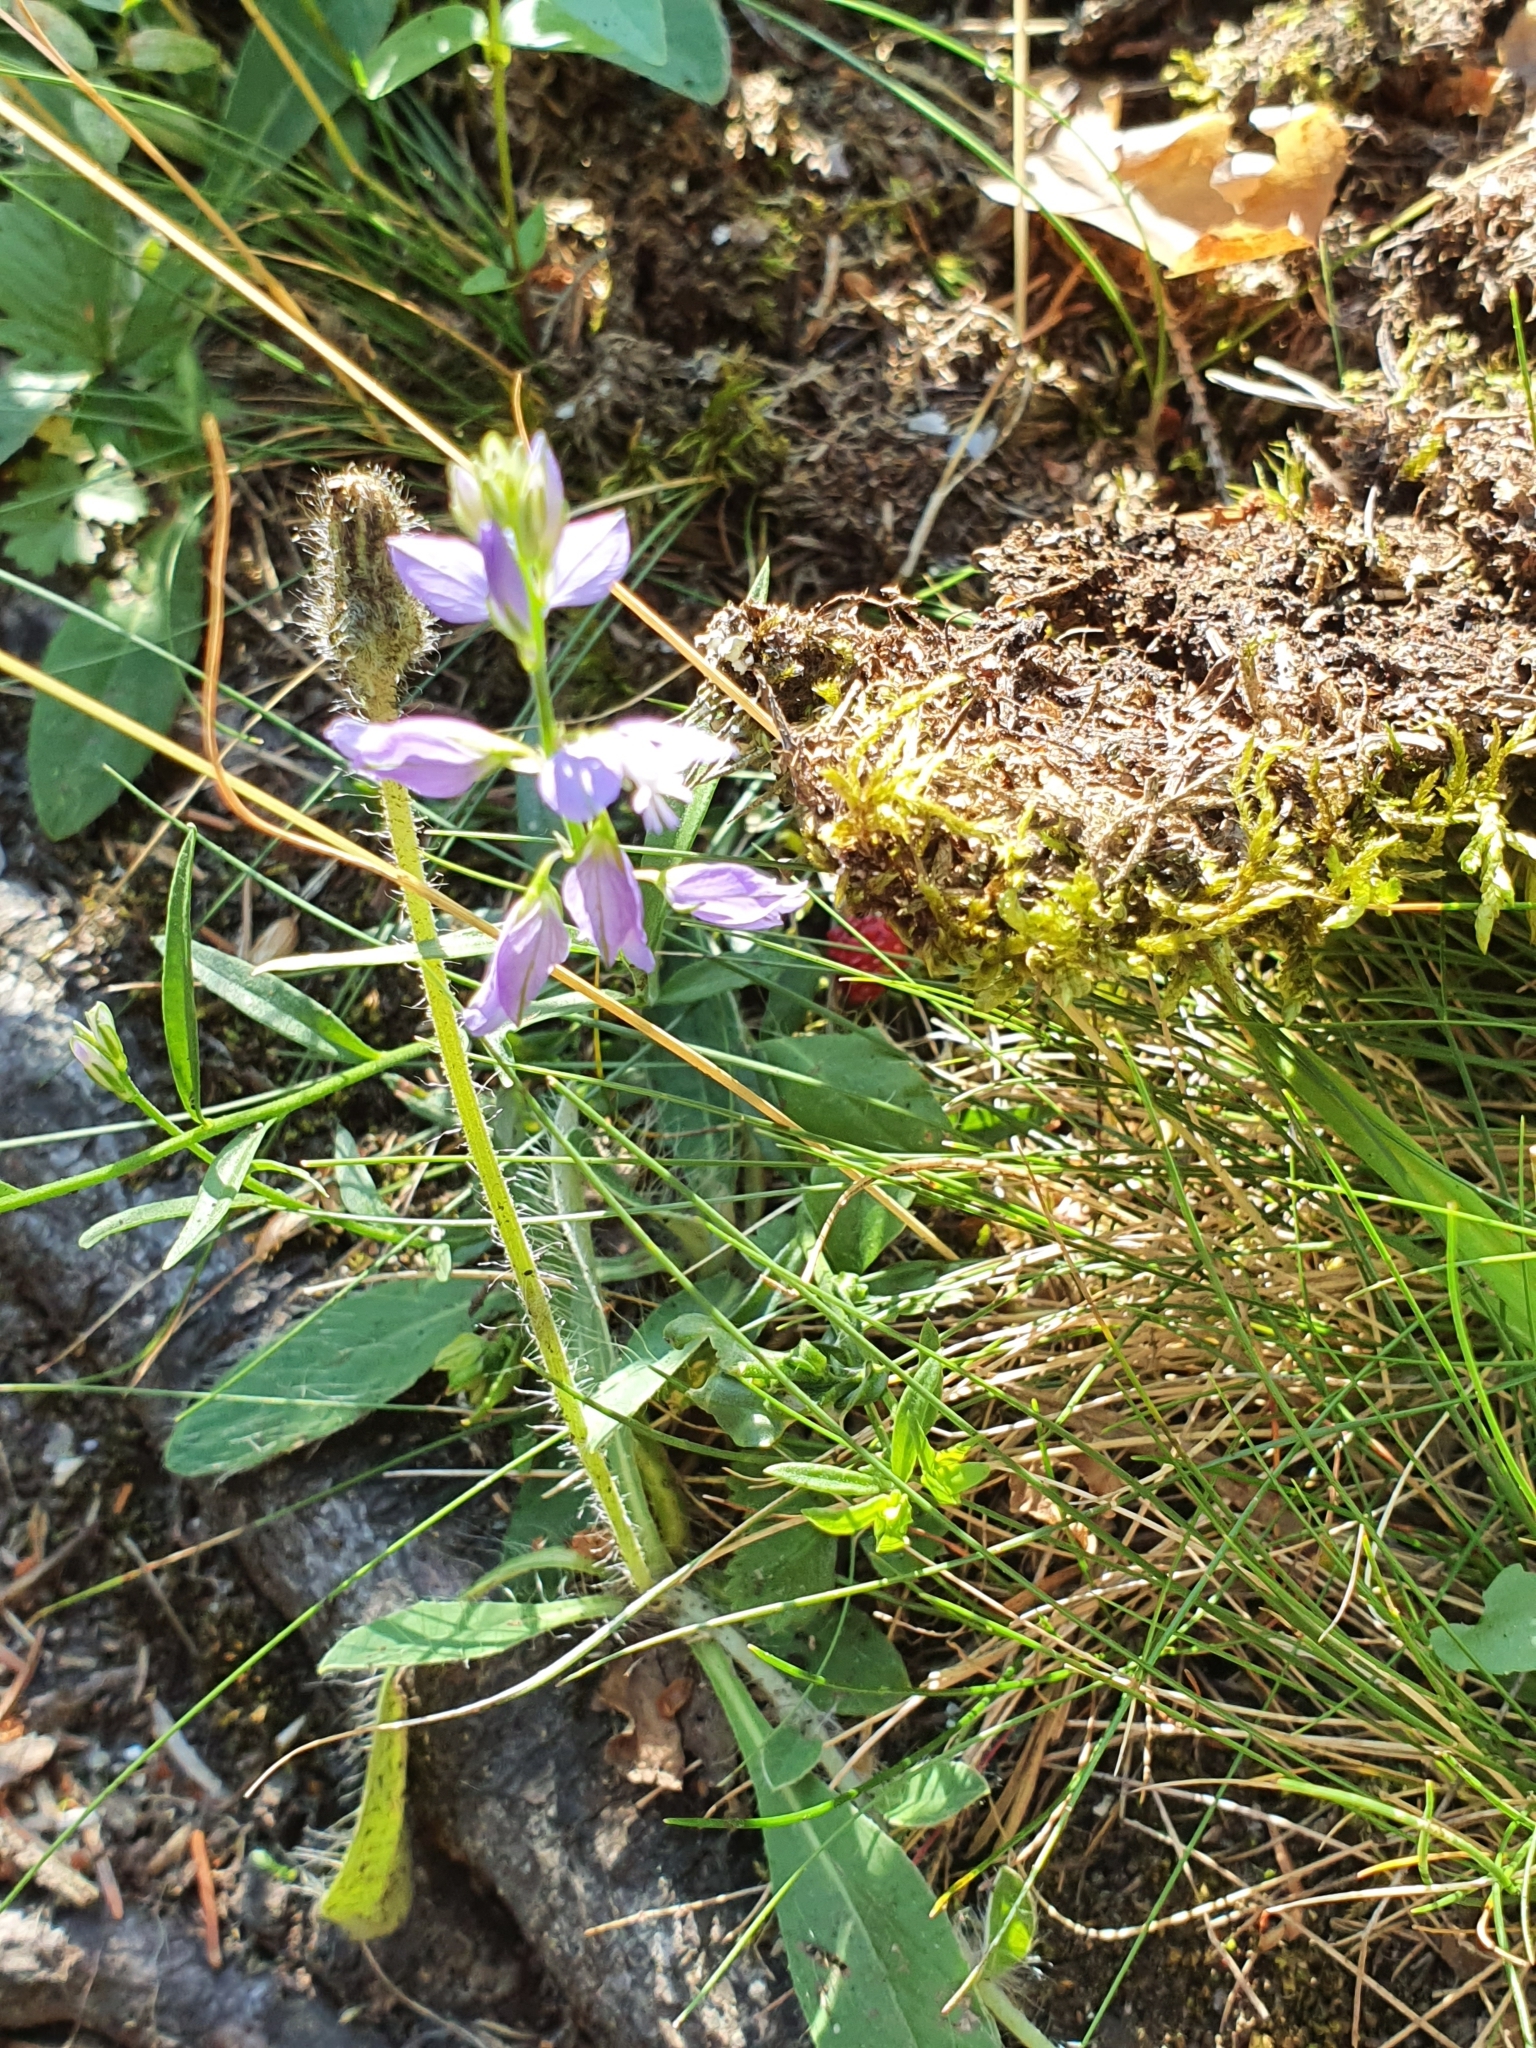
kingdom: Plantae
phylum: Tracheophyta
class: Magnoliopsida
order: Fabales
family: Polygalaceae
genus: Polygala
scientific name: Polygala vulgaris
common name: Common milkwort
